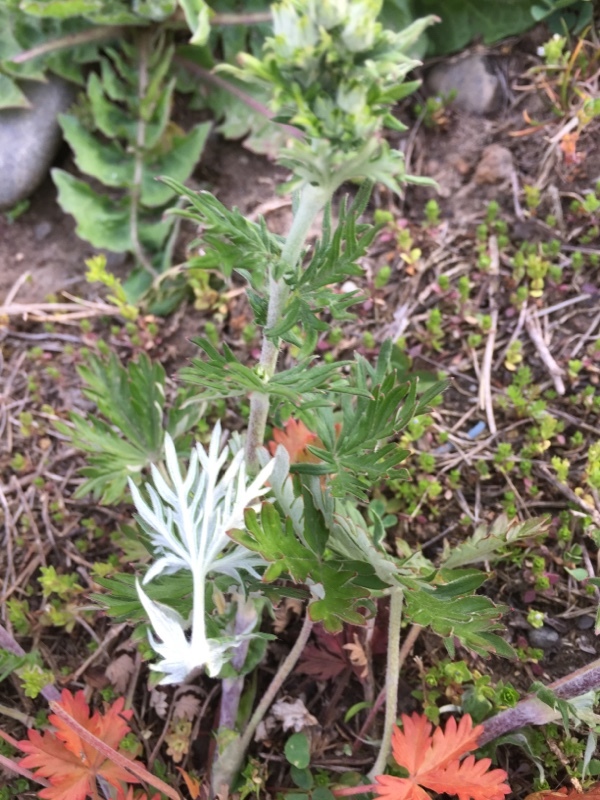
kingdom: Plantae
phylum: Tracheophyta
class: Magnoliopsida
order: Rosales
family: Rosaceae
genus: Potentilla
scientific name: Potentilla argentea
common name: Hoary cinquefoil
